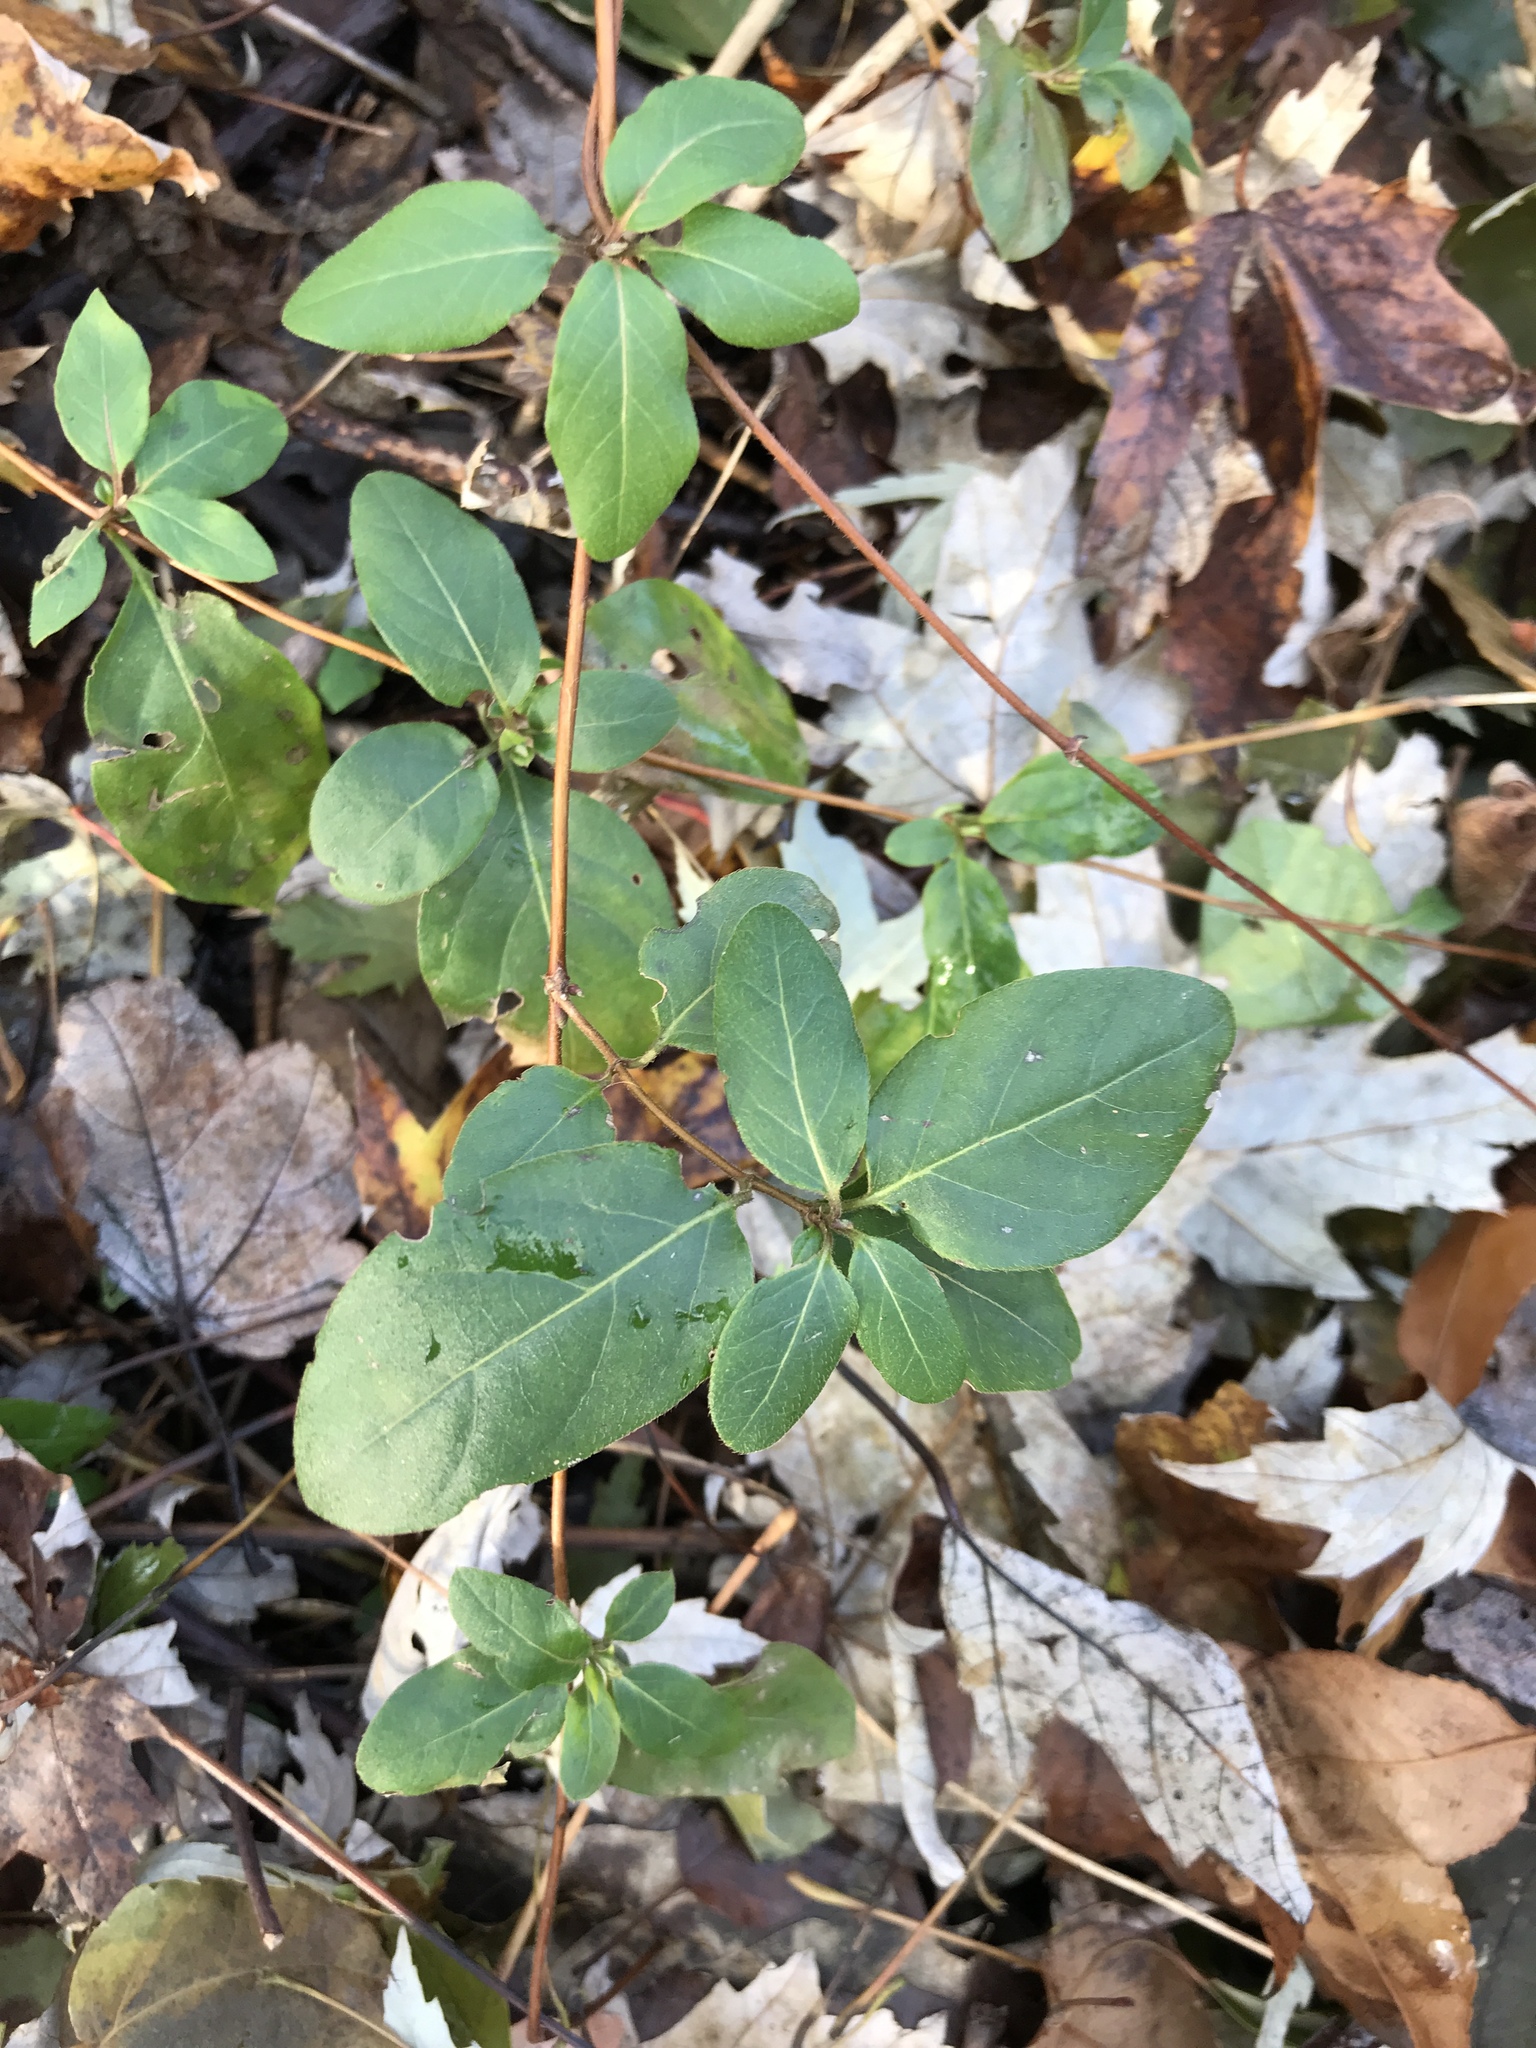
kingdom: Plantae
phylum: Tracheophyta
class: Magnoliopsida
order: Dipsacales
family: Caprifoliaceae
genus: Lonicera
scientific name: Lonicera japonica
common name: Japanese honeysuckle
